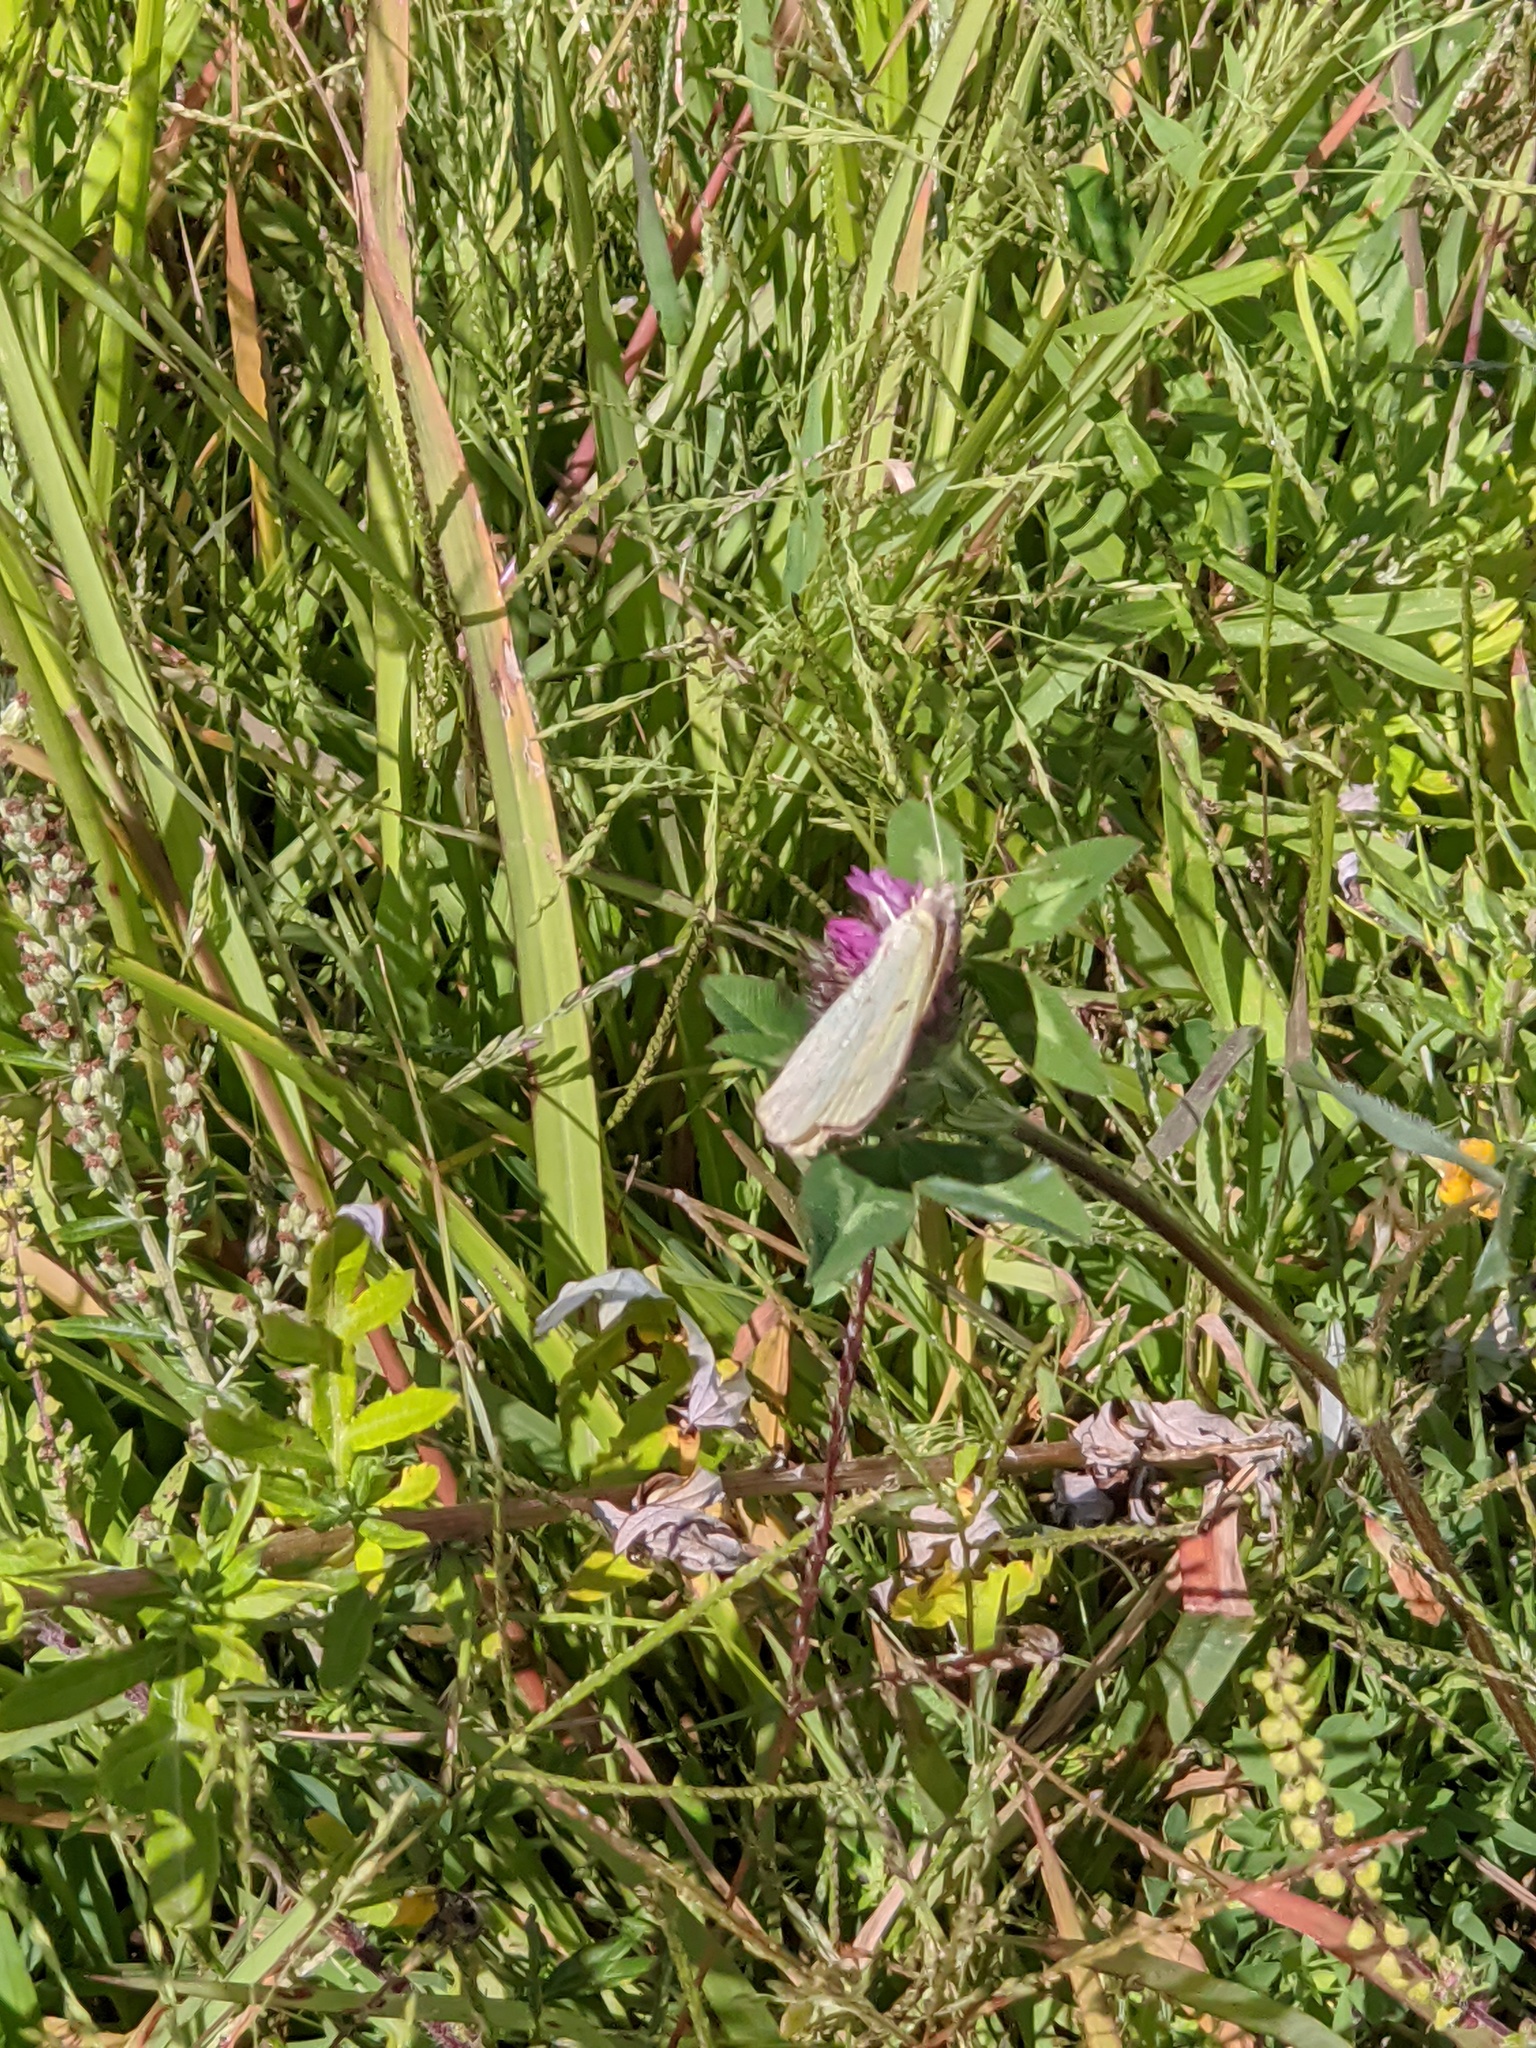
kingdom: Animalia
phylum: Arthropoda
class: Insecta
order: Lepidoptera
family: Pieridae
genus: Pieris
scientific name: Pieris rapae
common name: Small white
